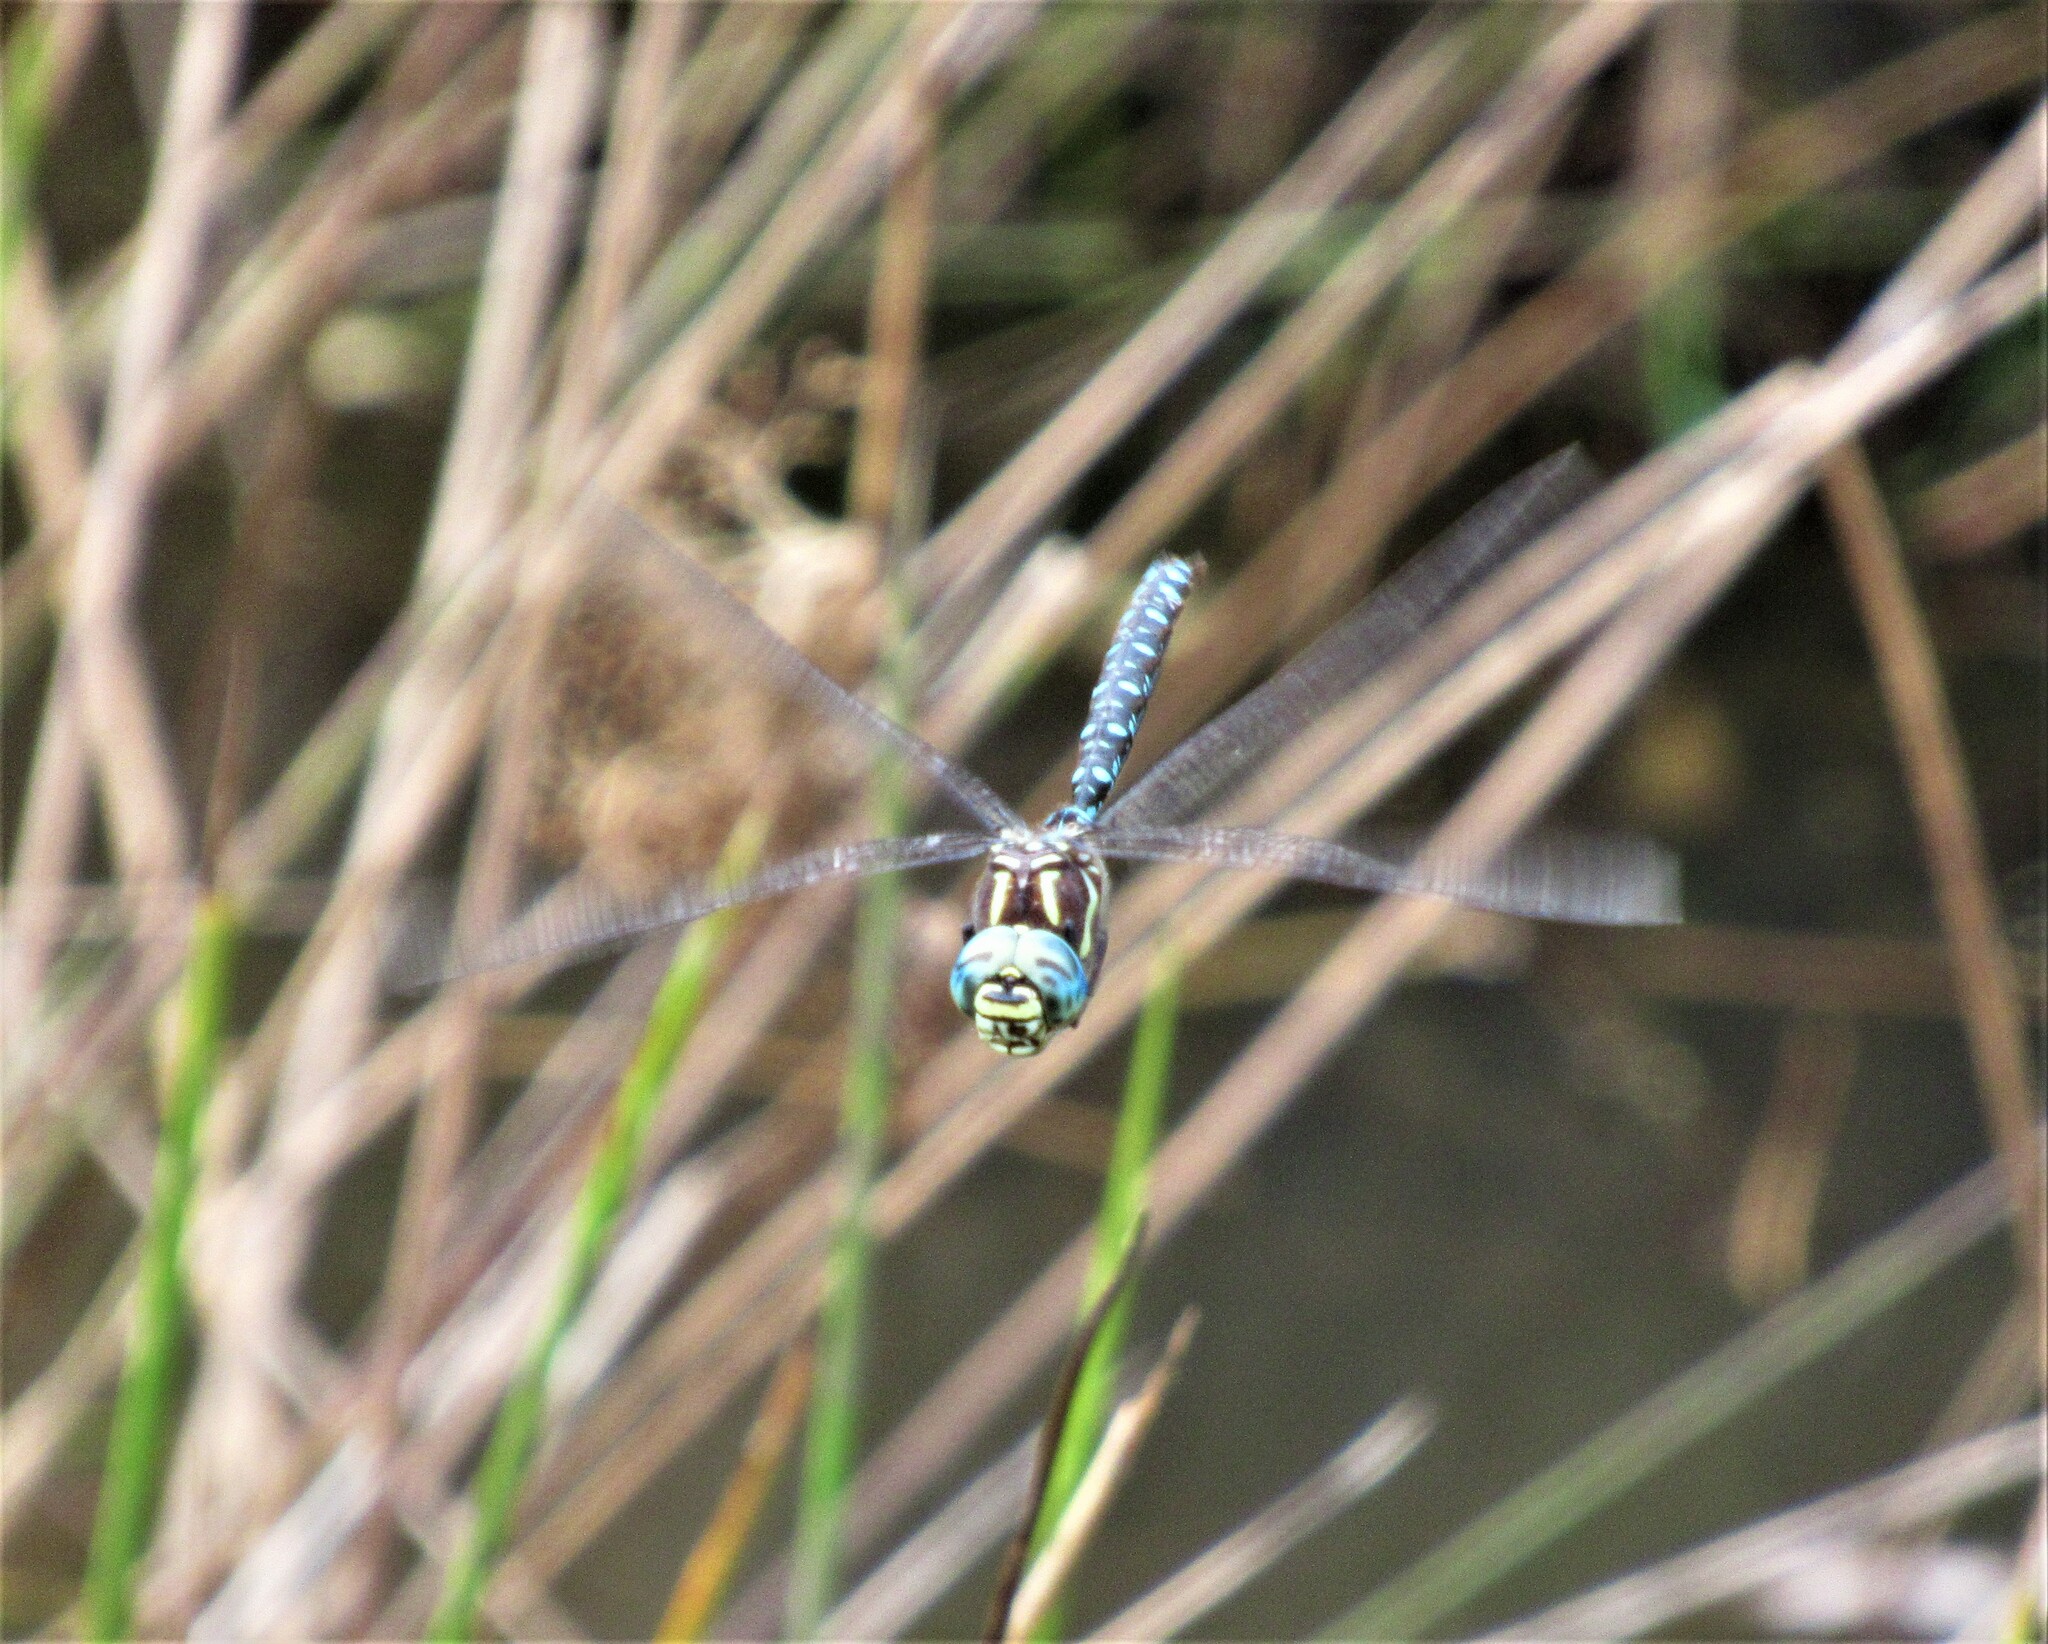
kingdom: Animalia
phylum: Arthropoda
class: Insecta
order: Odonata
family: Aeshnidae
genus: Aeshna
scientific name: Aeshna palmata
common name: Paddle-tailed darner
